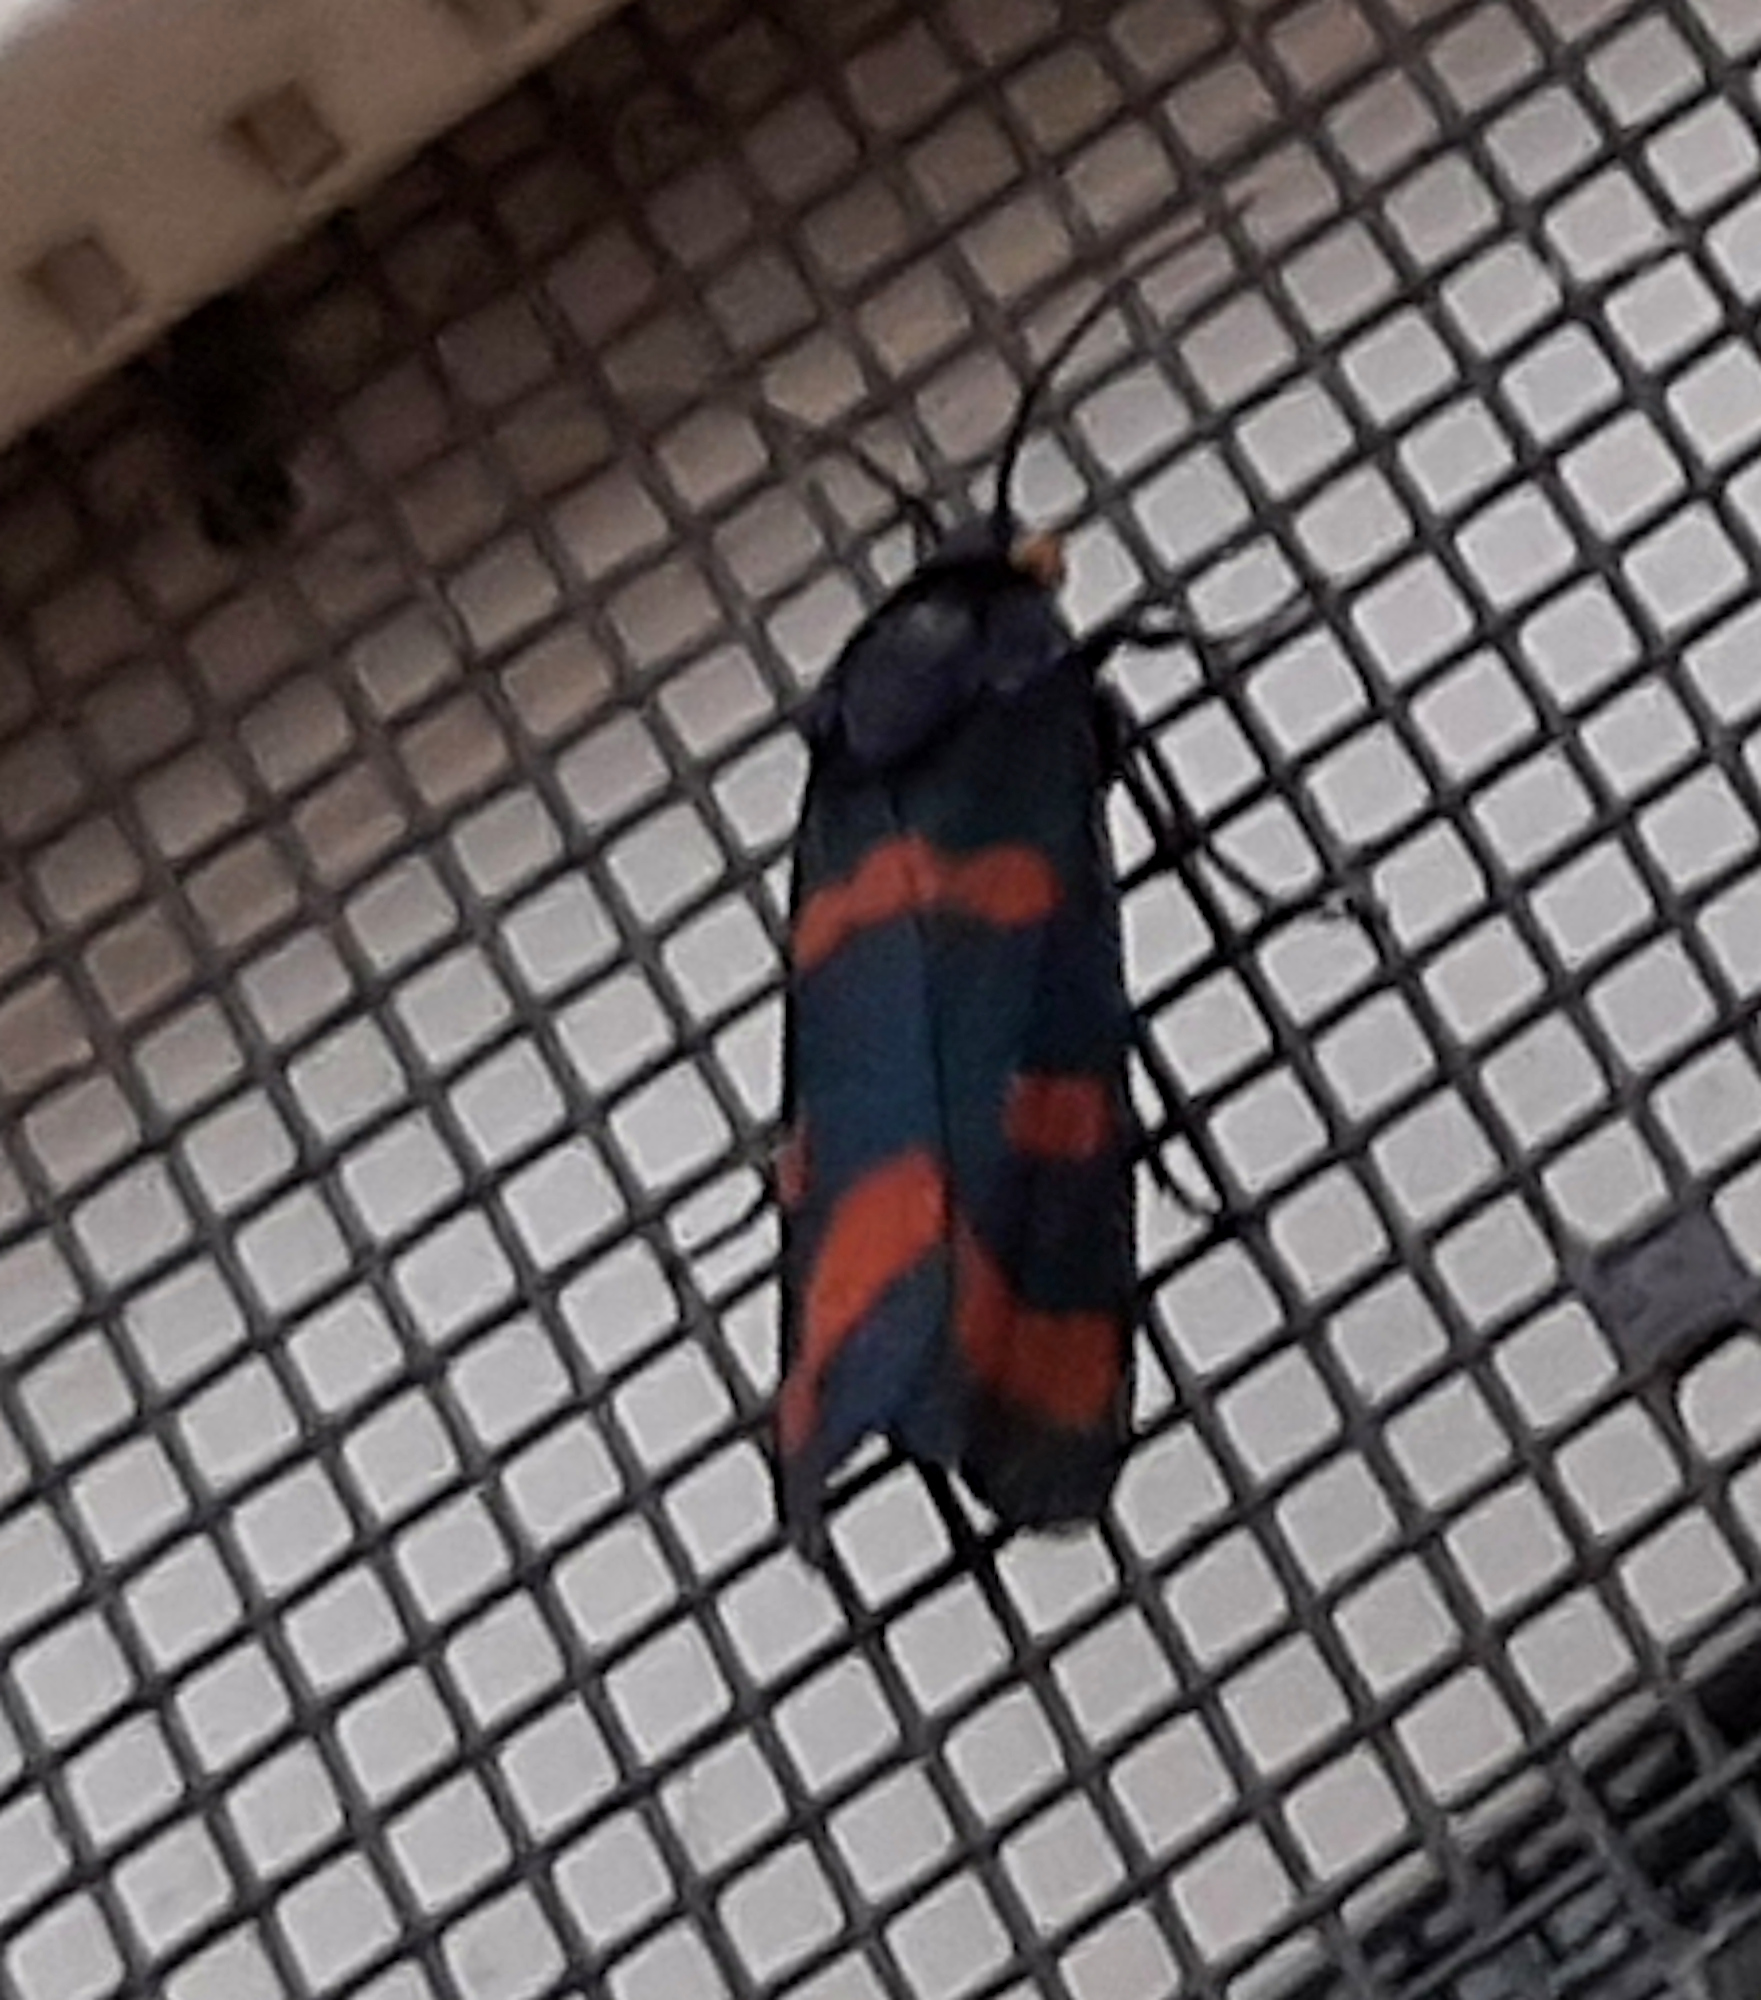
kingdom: Animalia
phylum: Arthropoda
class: Insecta
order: Lepidoptera
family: Noctuidae
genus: Cydosia
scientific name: Cydosia aurivitta
